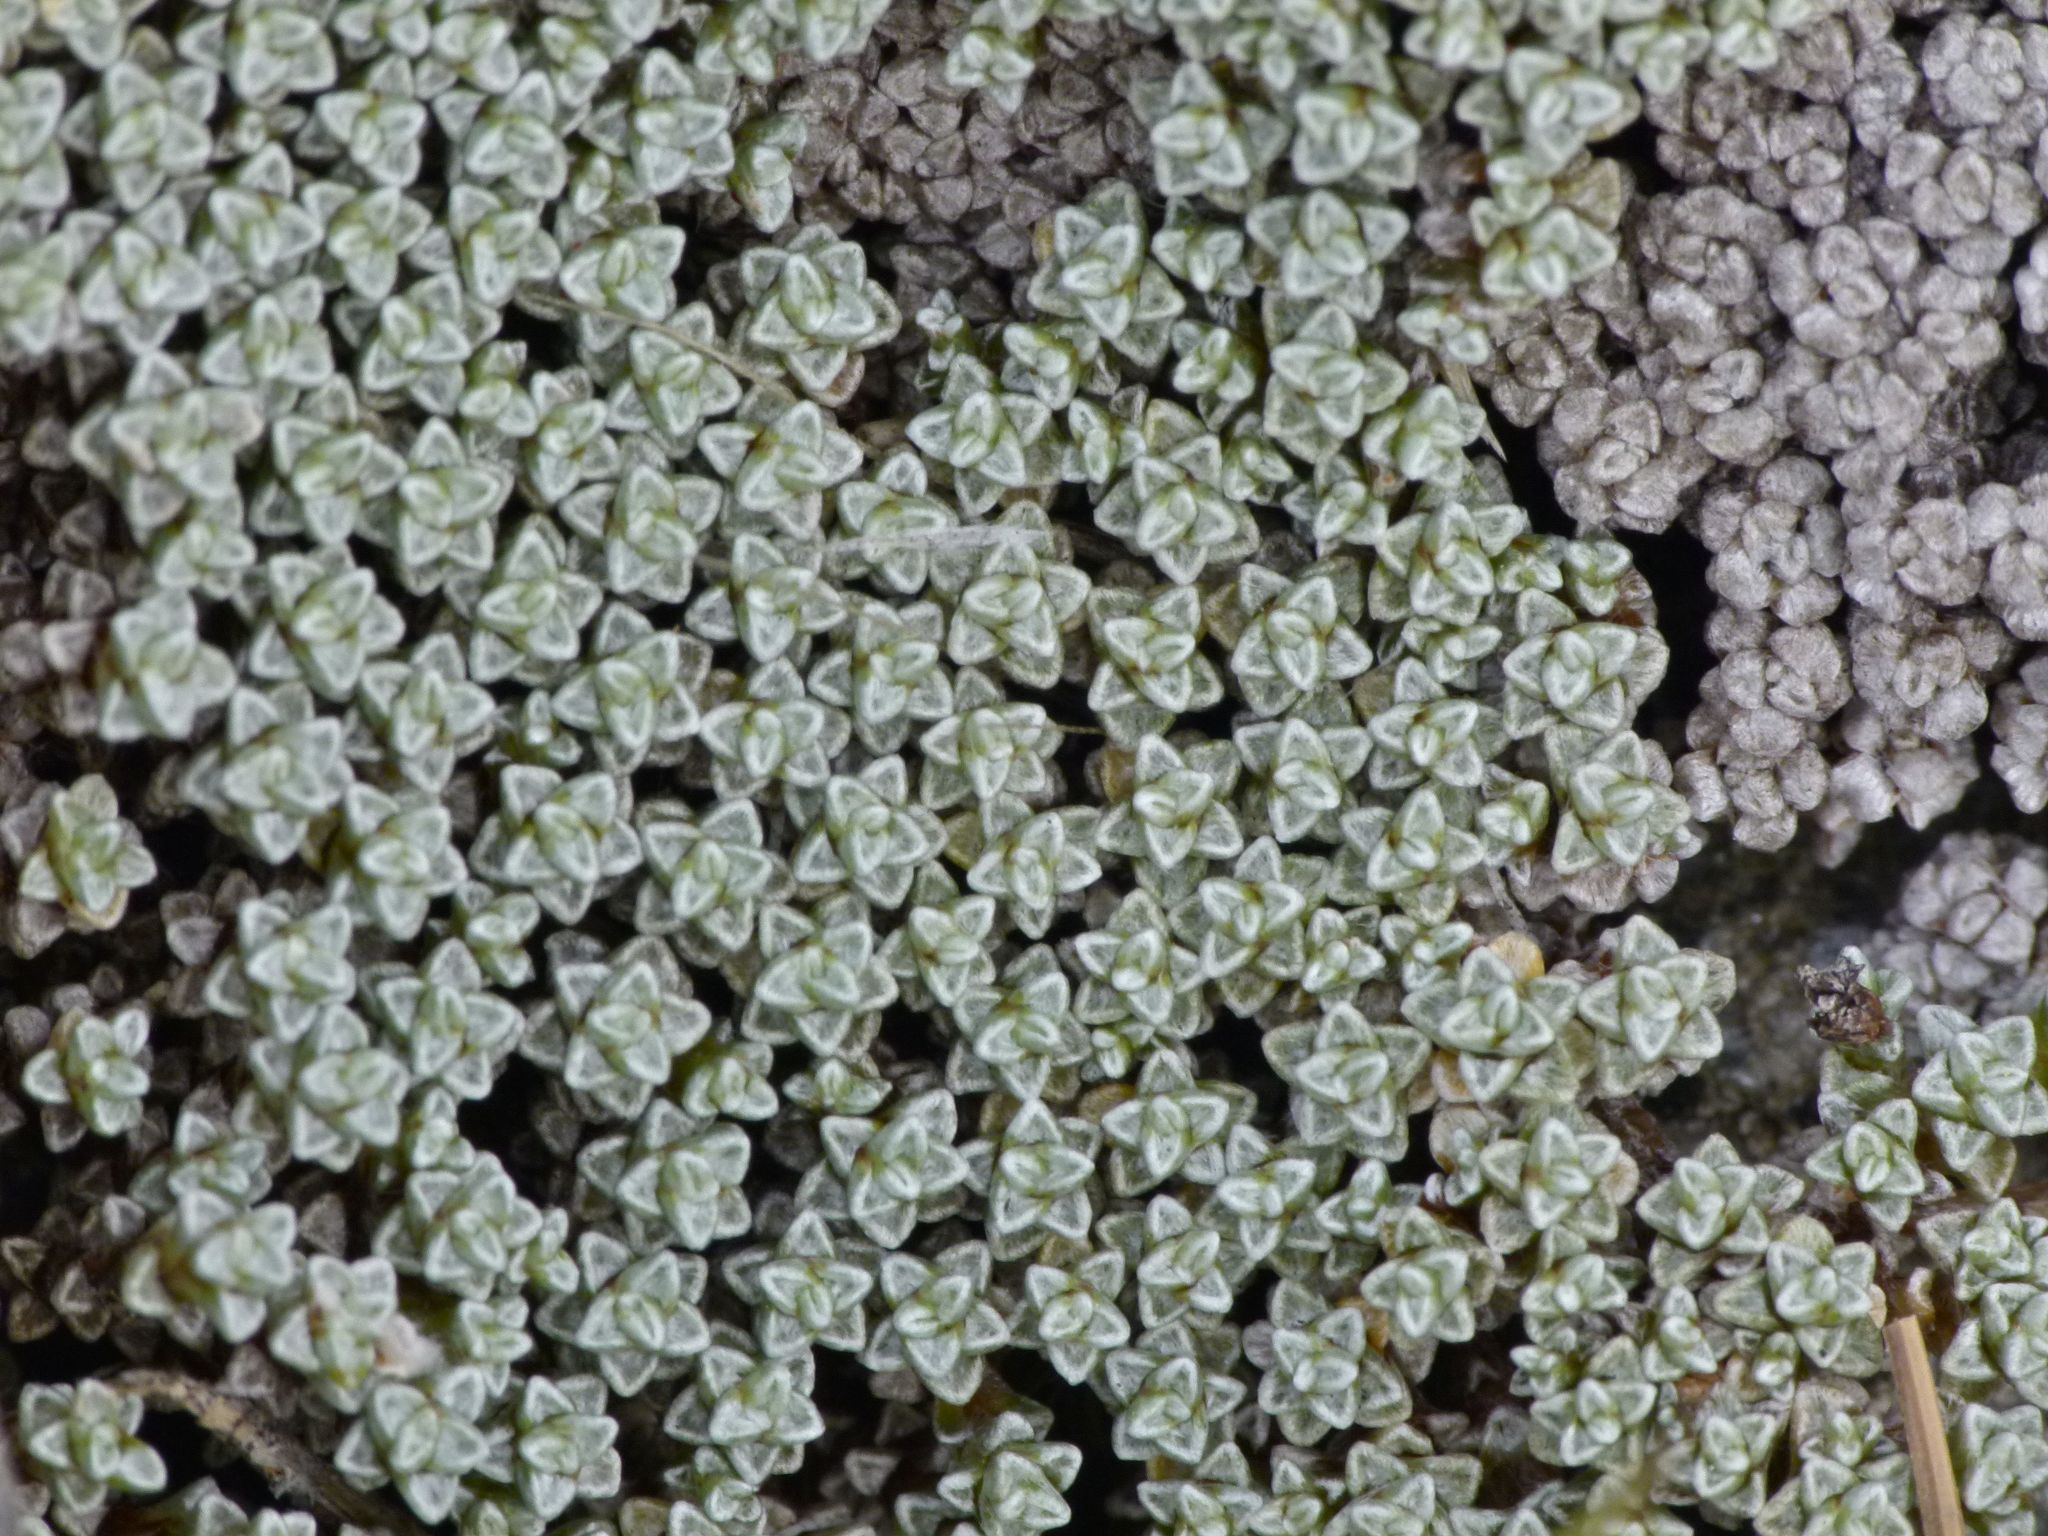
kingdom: Plantae
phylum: Tracheophyta
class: Magnoliopsida
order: Asterales
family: Asteraceae
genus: Raoulia
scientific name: Raoulia australis
